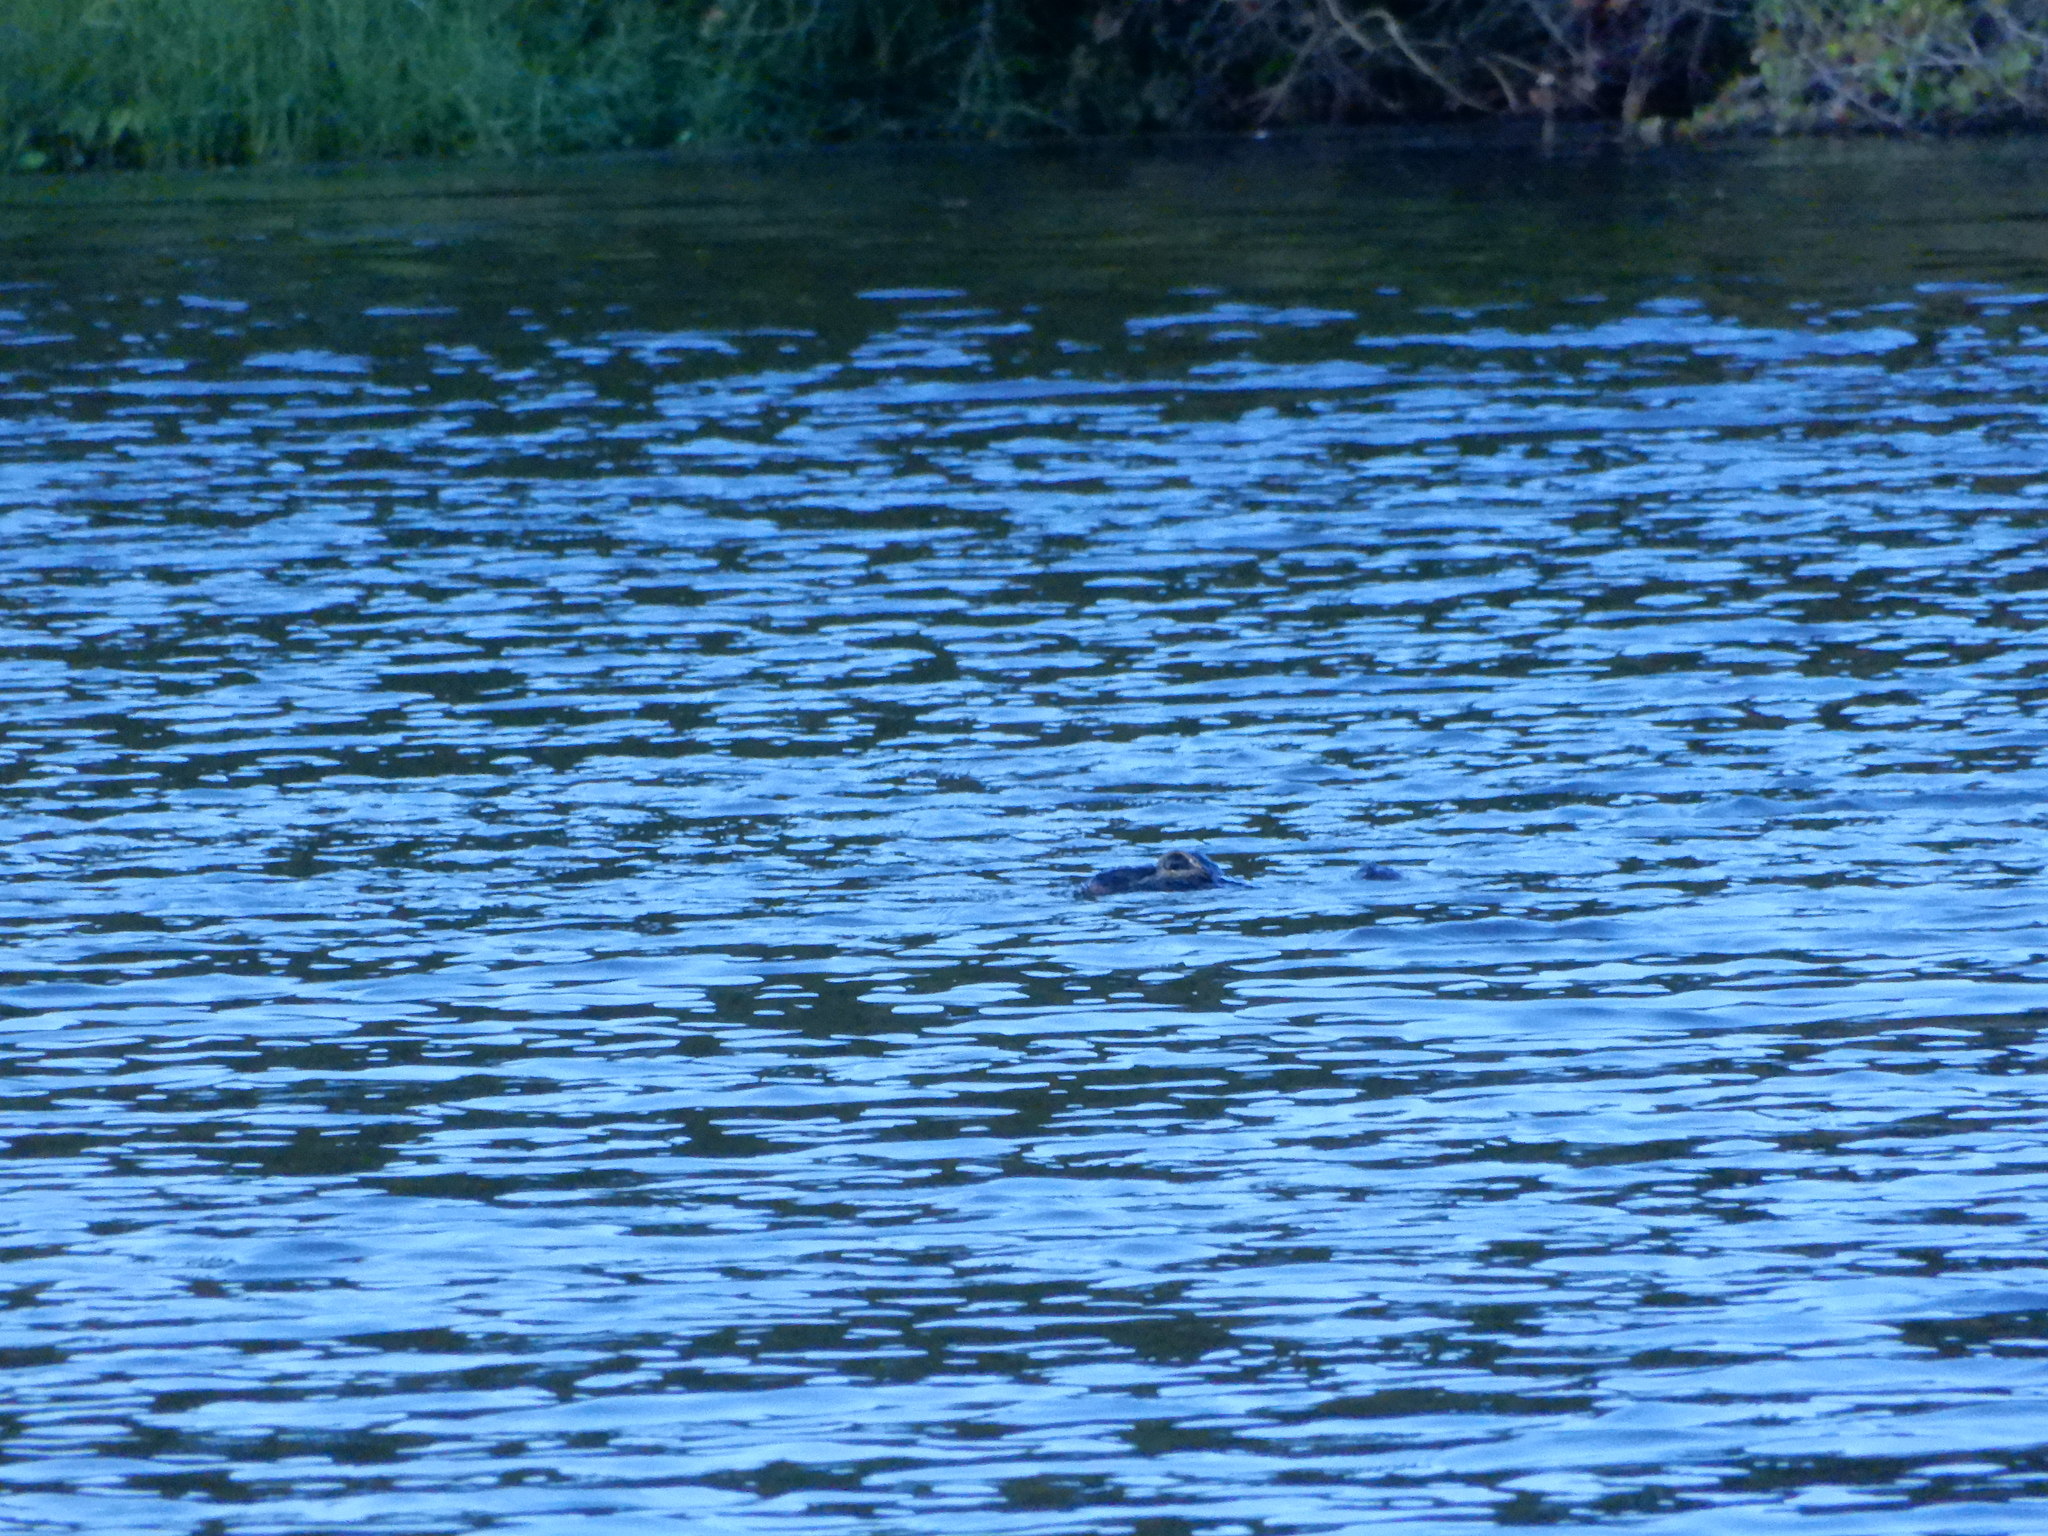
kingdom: Animalia
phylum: Chordata
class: Crocodylia
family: Alligatoridae
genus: Alligator
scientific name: Alligator mississippiensis
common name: American alligator
